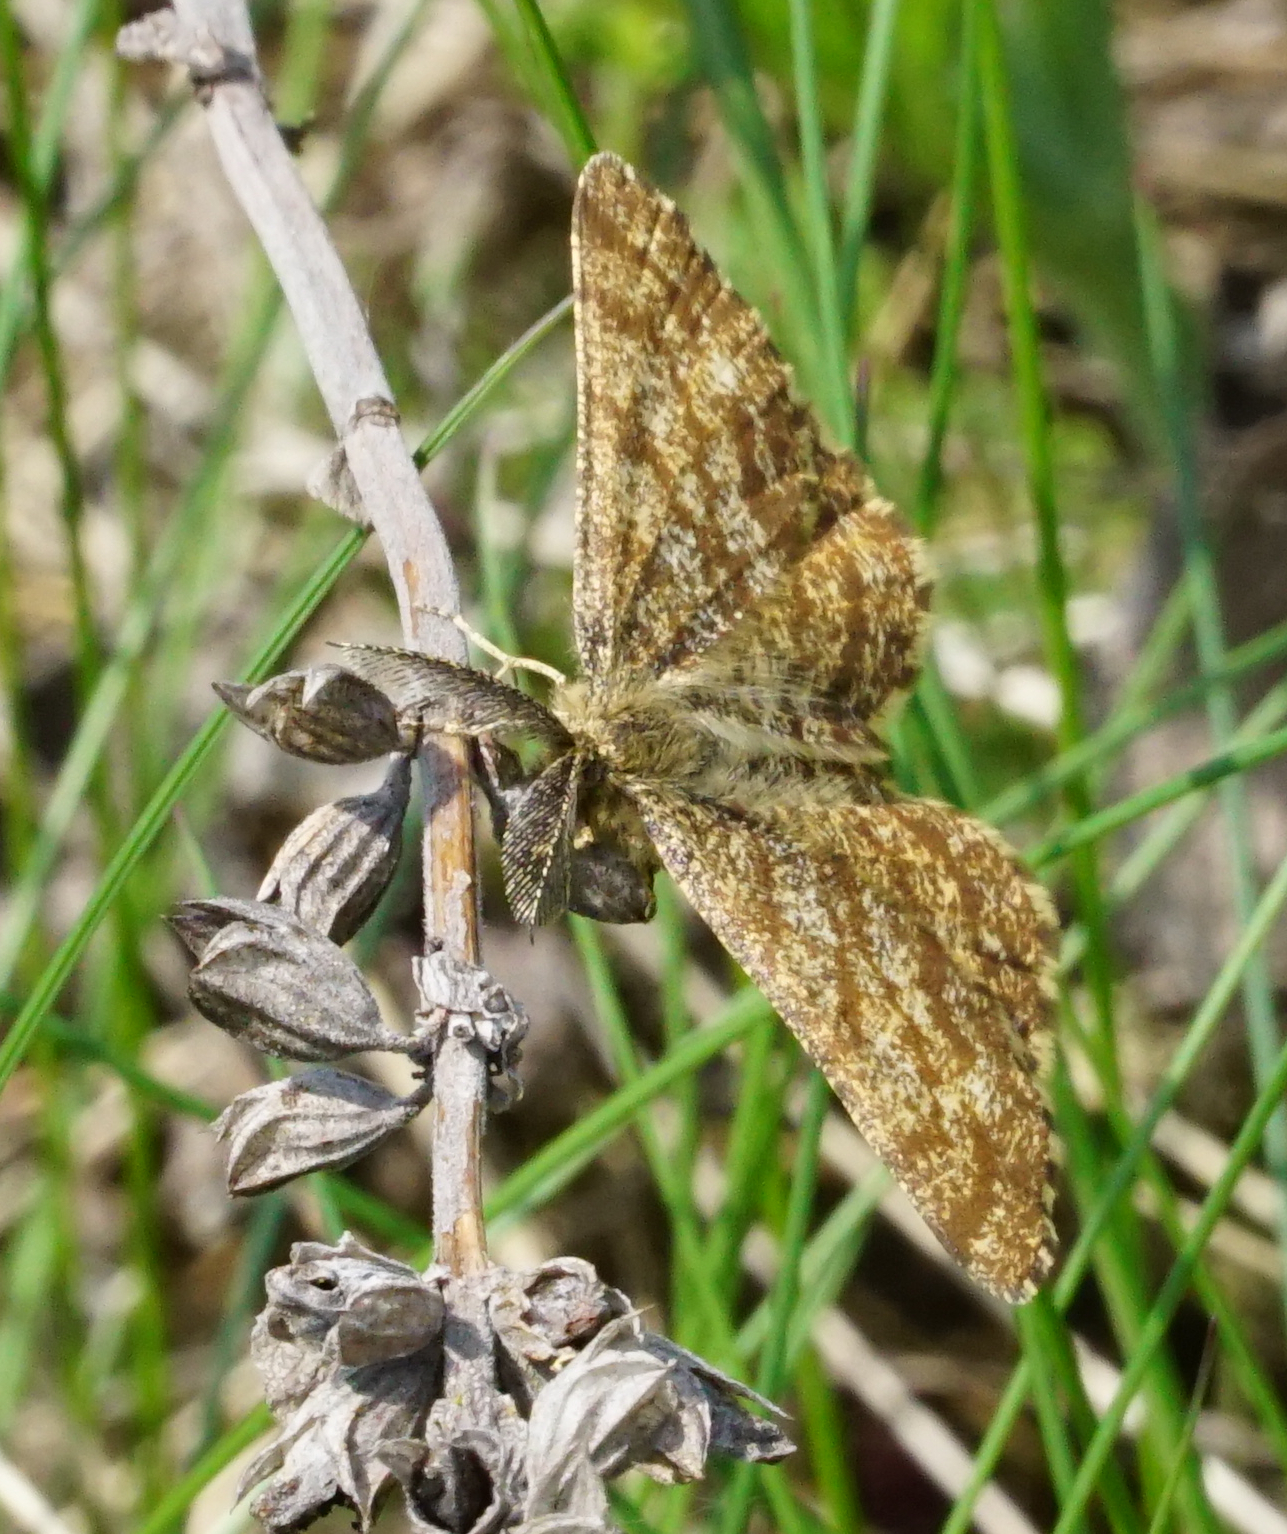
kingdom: Animalia
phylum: Arthropoda
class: Insecta
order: Lepidoptera
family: Geometridae
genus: Ematurga
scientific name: Ematurga atomaria
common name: Common heath
